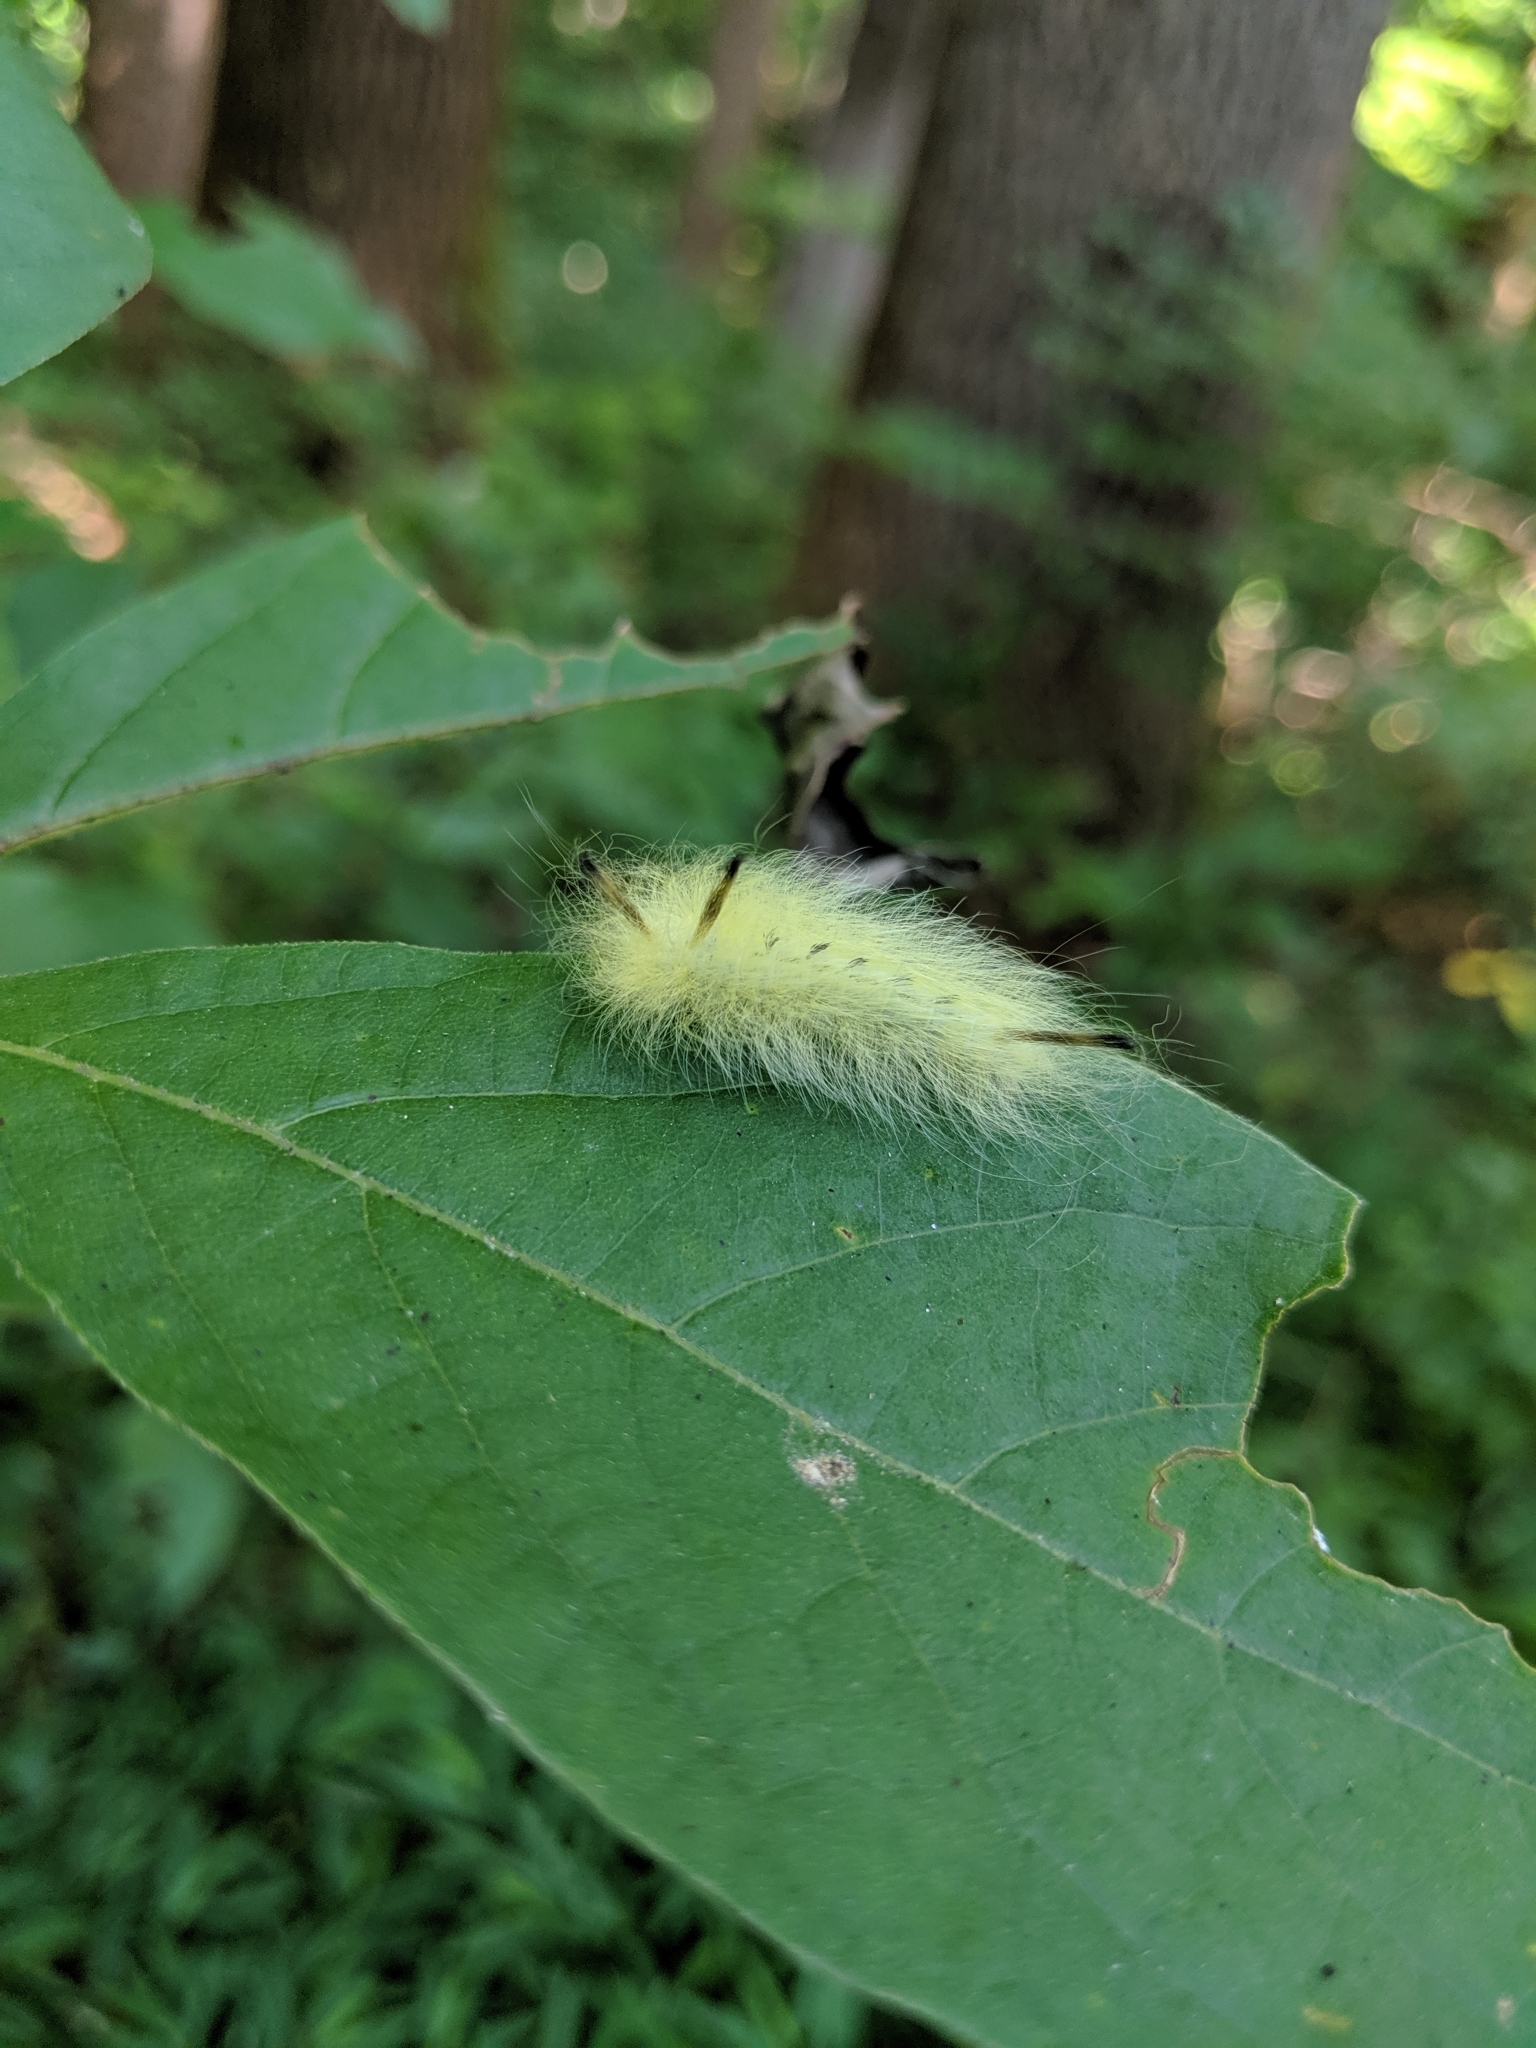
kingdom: Animalia
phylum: Arthropoda
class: Insecta
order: Lepidoptera
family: Apatelodidae
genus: Hygrochroa
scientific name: Hygrochroa Apatelodes torrefacta
